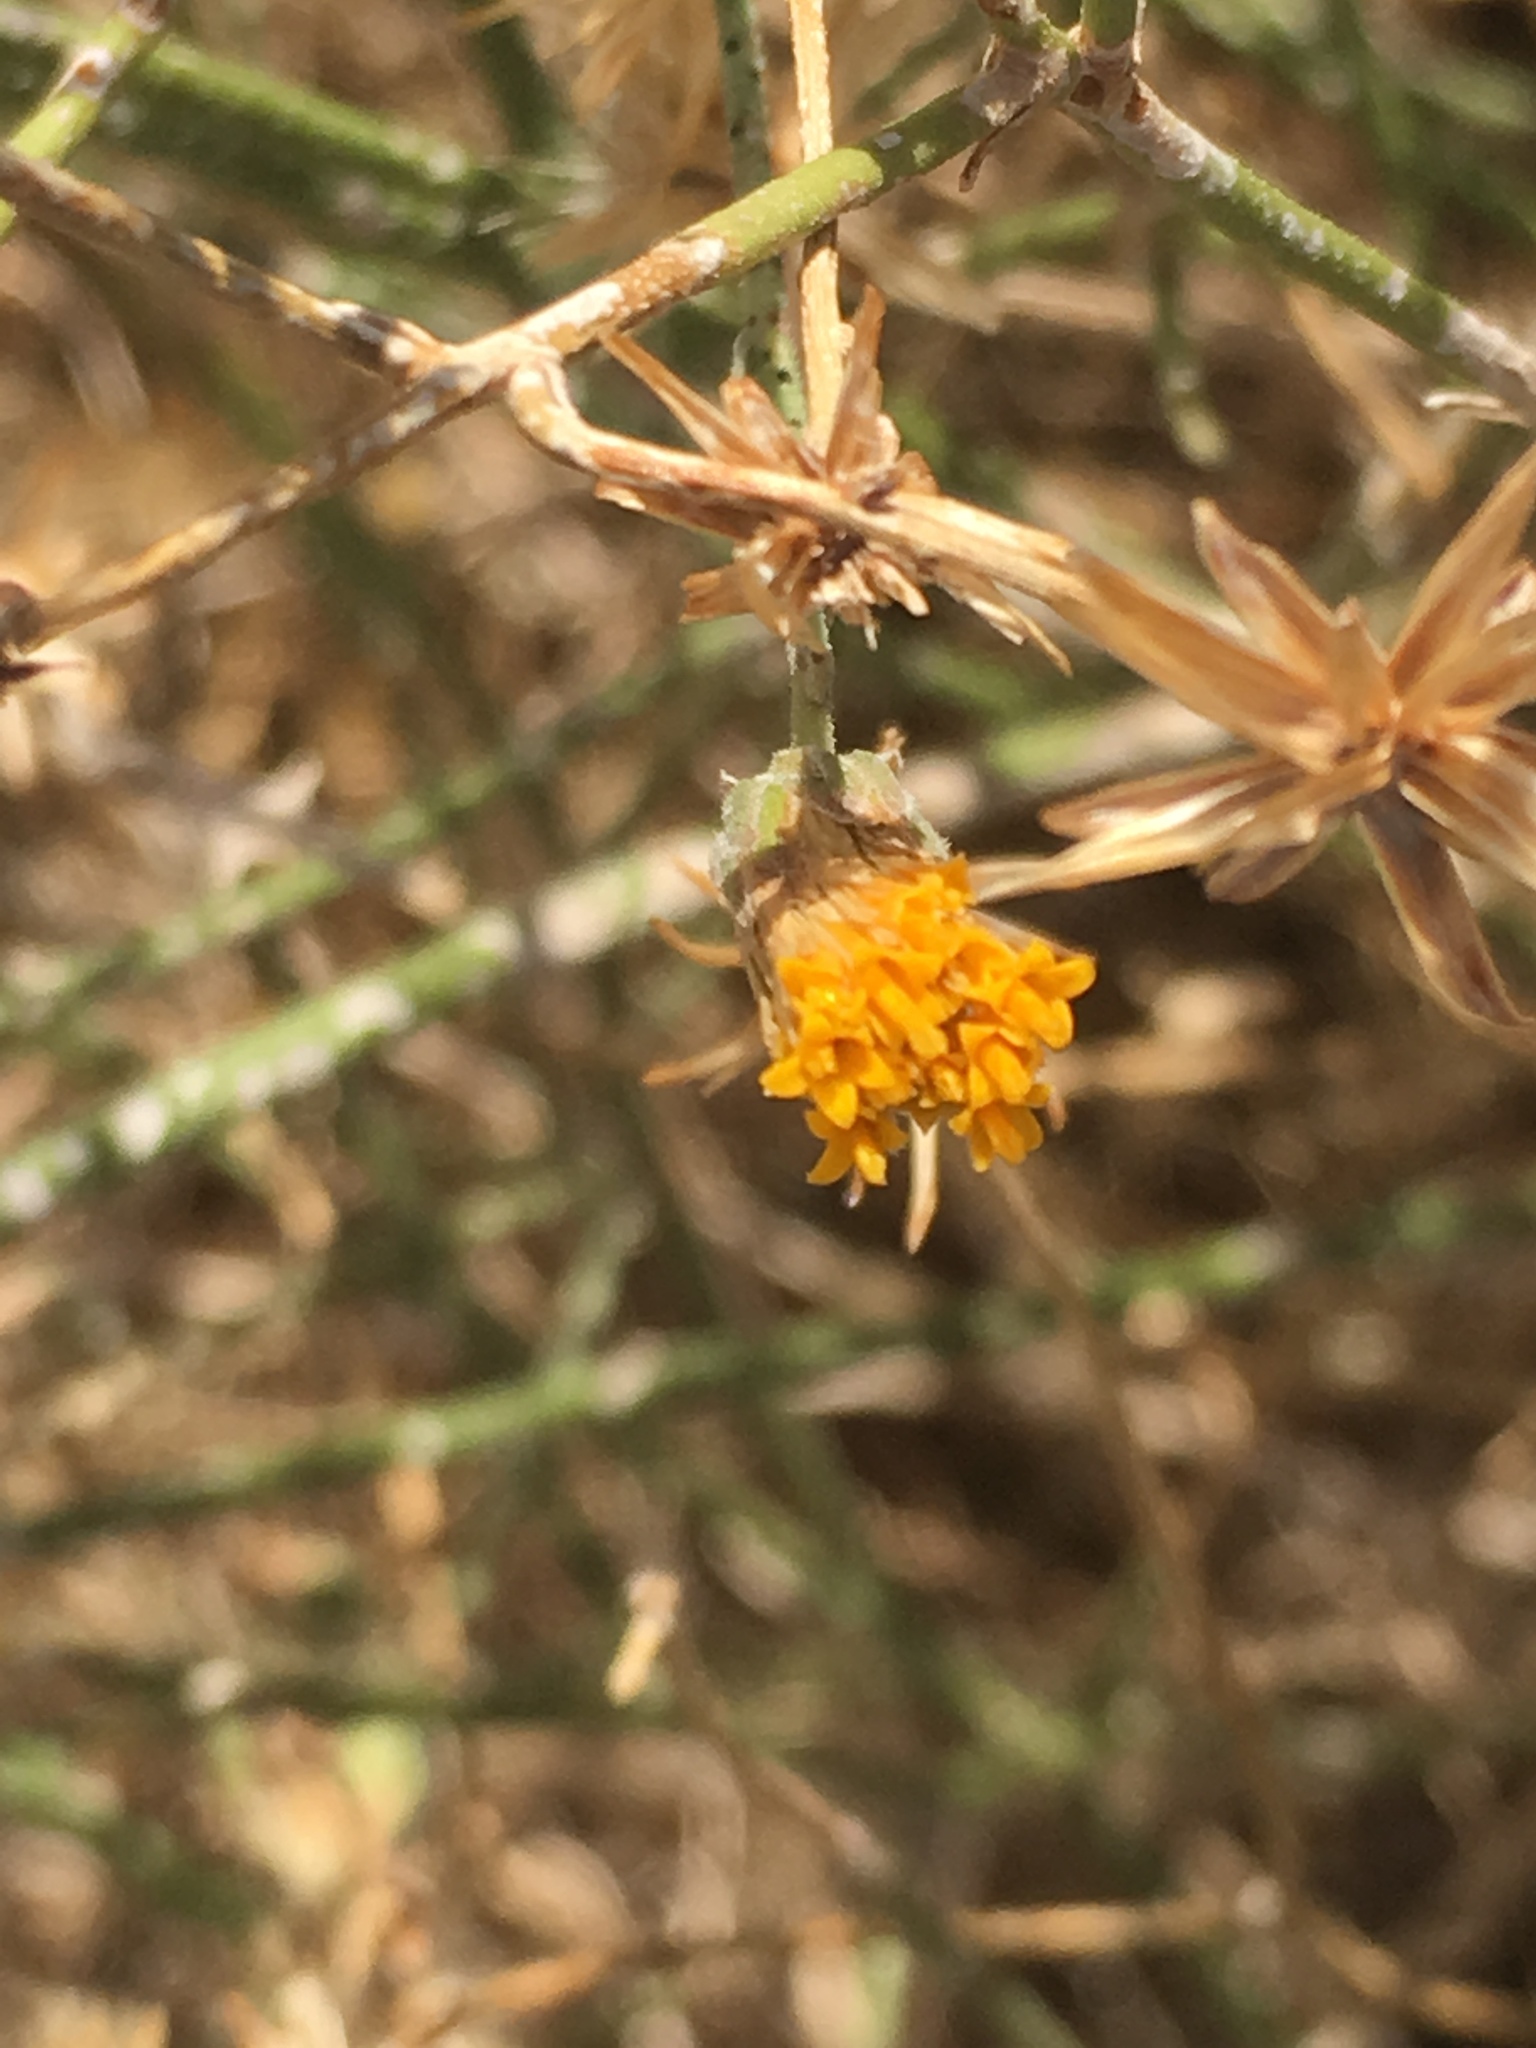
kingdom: Plantae
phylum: Tracheophyta
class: Magnoliopsida
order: Asterales
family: Asteraceae
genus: Bebbia
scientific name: Bebbia juncea
